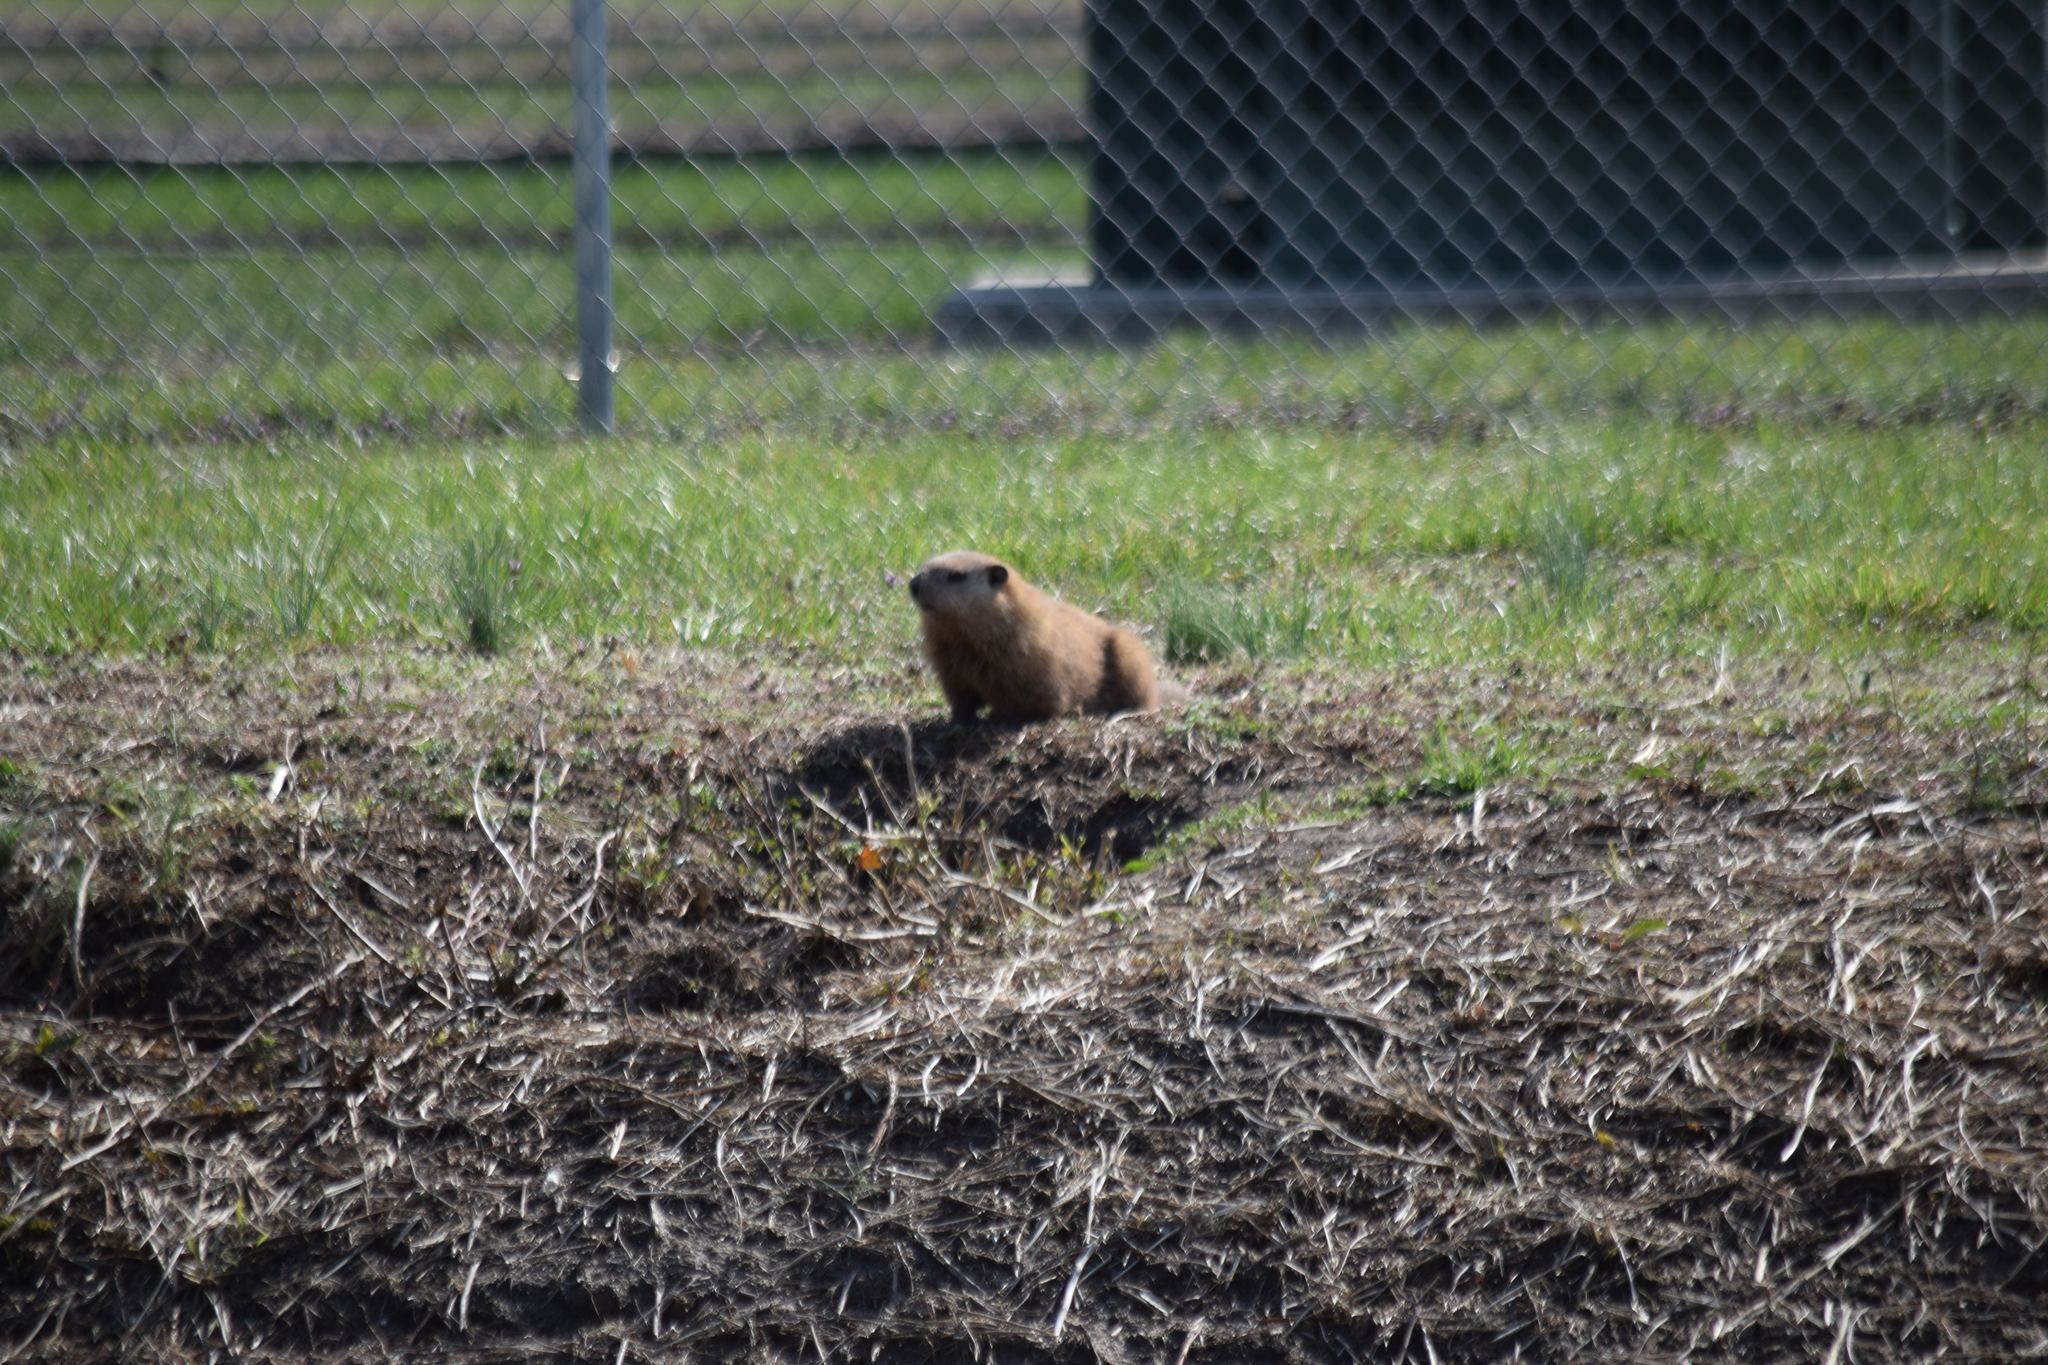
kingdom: Animalia
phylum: Chordata
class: Mammalia
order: Rodentia
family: Sciuridae
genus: Marmota
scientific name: Marmota monax
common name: Groundhog
